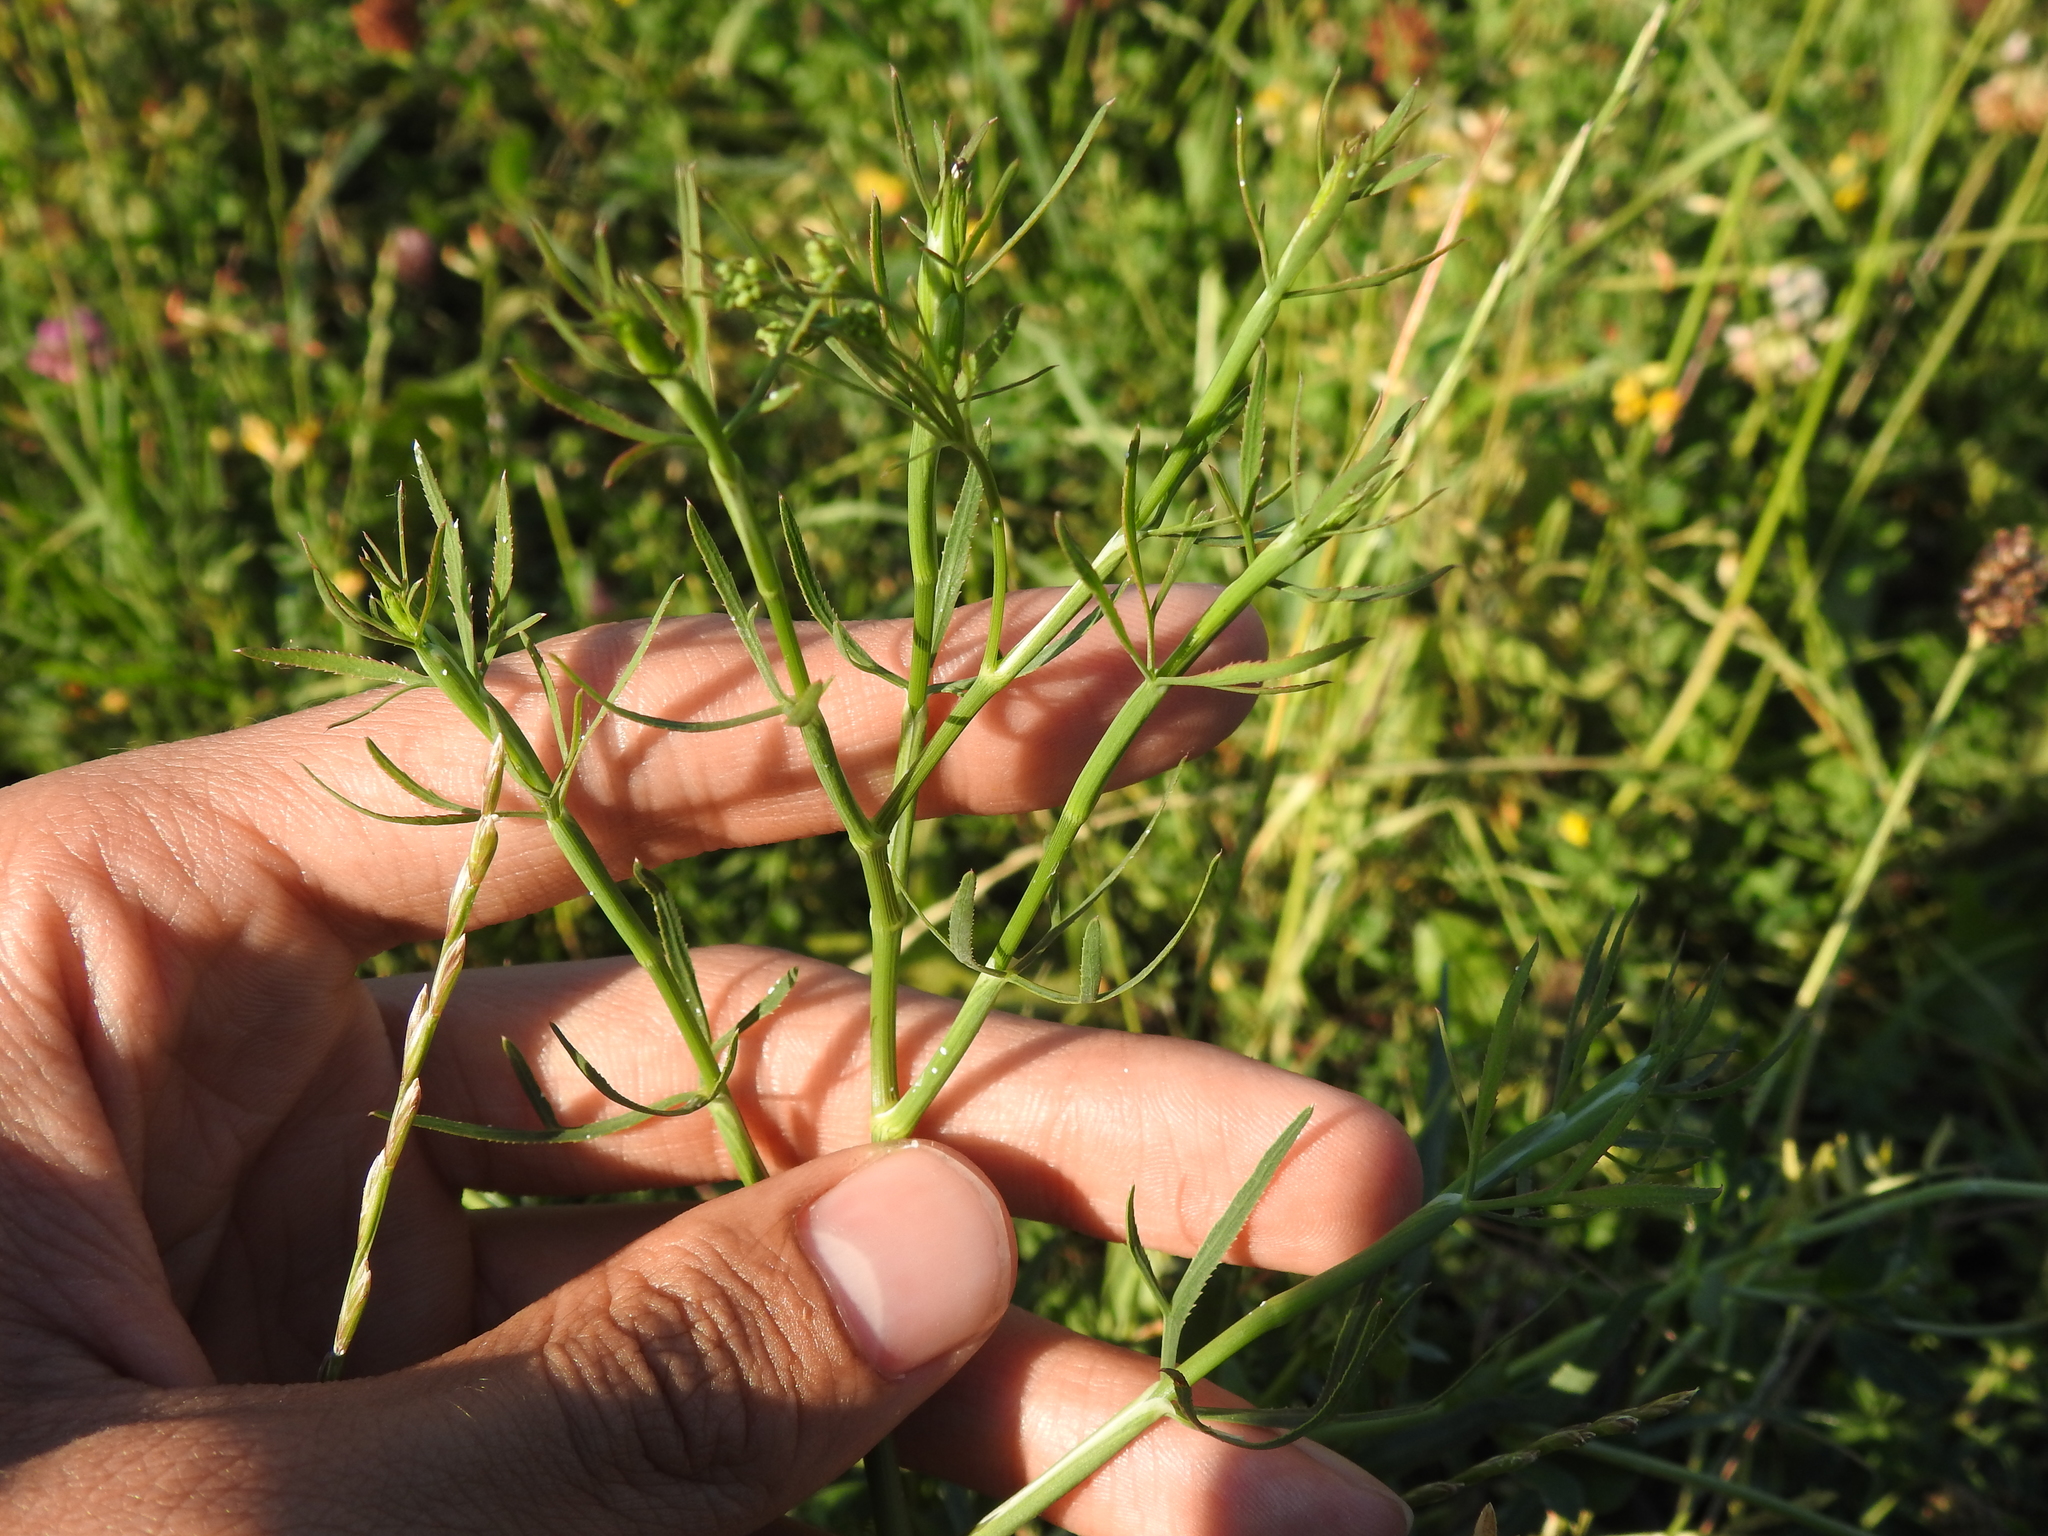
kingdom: Plantae
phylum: Tracheophyta
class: Magnoliopsida
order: Apiales
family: Apiaceae
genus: Falcaria
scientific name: Falcaria vulgaris
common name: Longleaf
